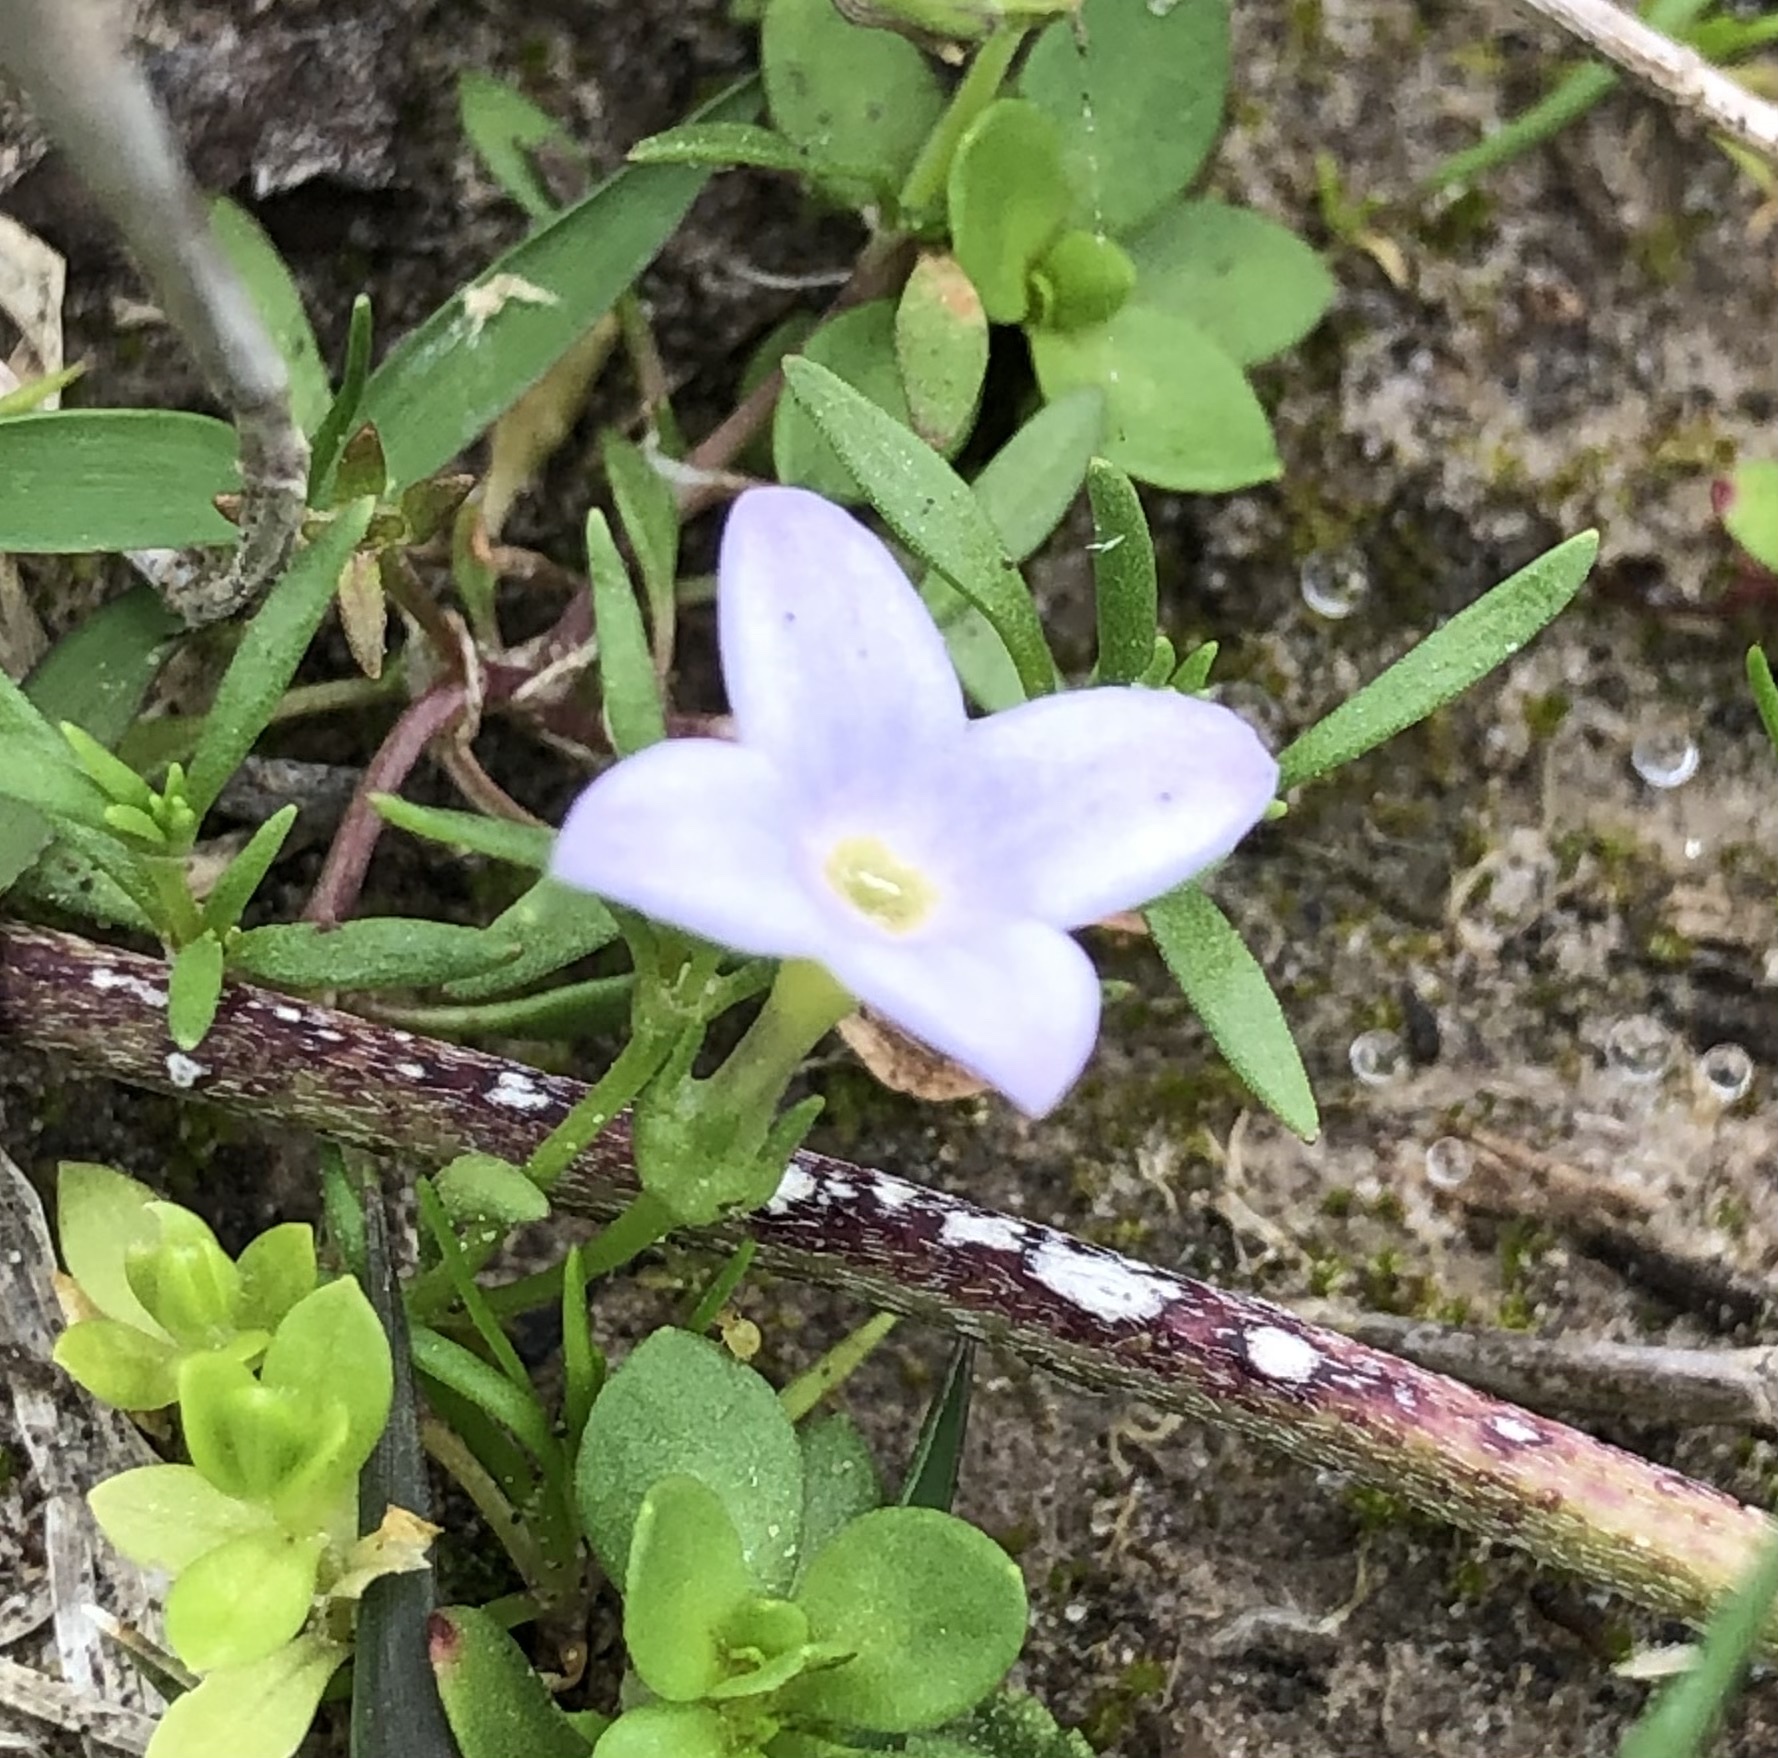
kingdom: Plantae
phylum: Tracheophyta
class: Magnoliopsida
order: Gentianales
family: Rubiaceae
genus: Houstonia
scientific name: Houstonia rosea
